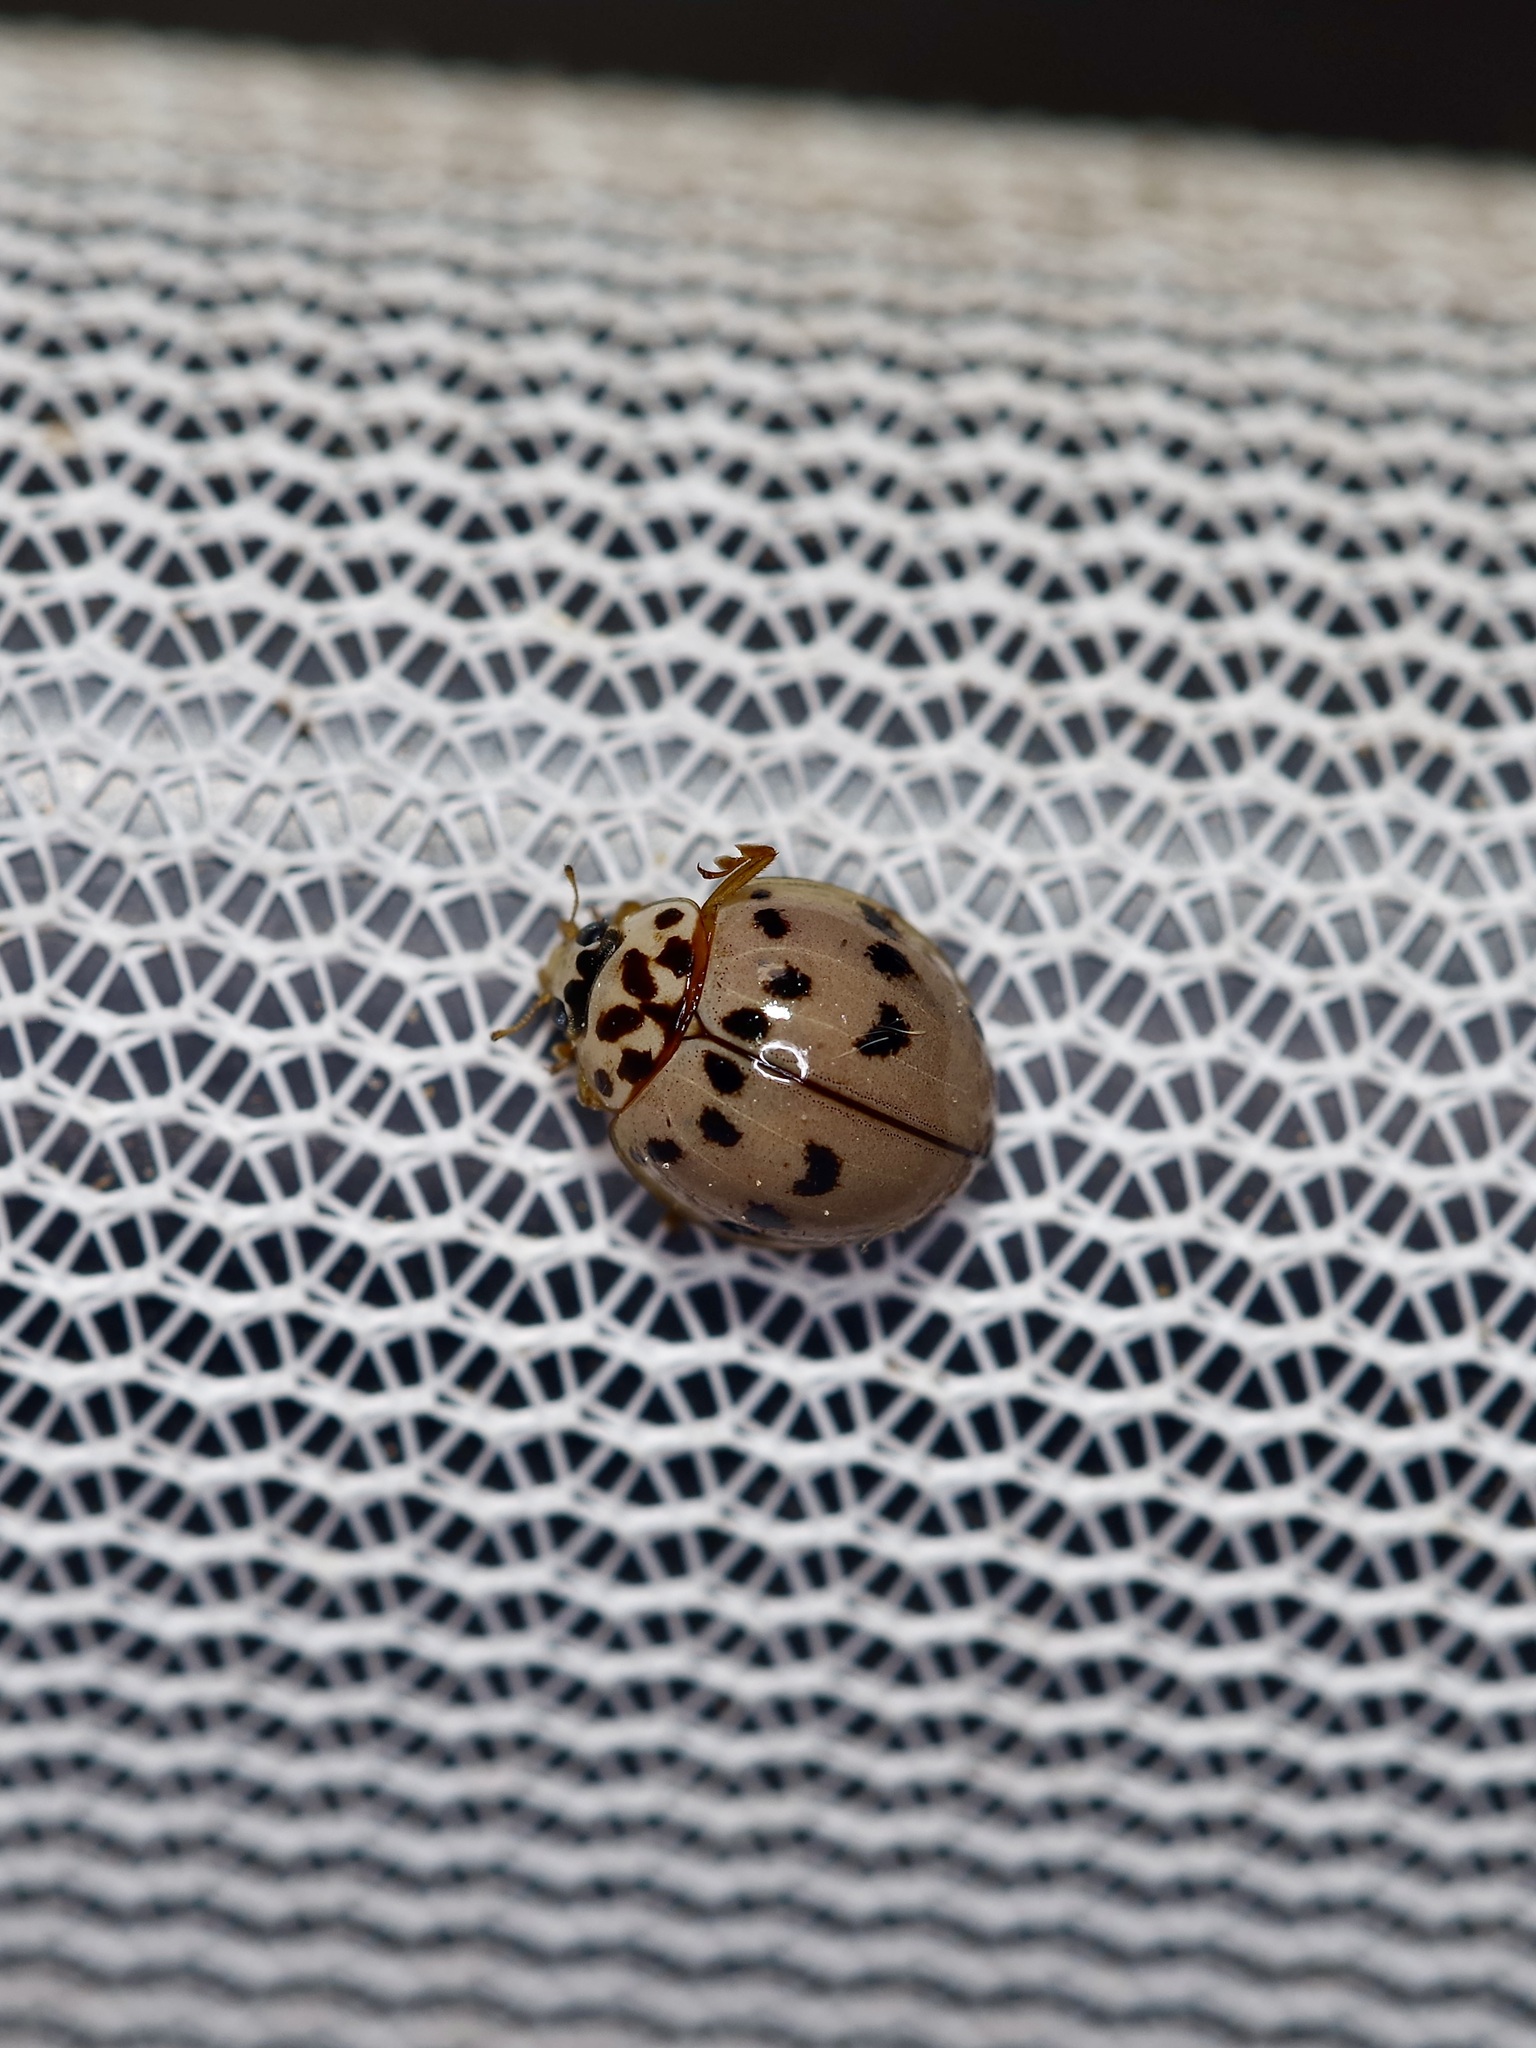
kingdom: Animalia
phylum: Arthropoda
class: Insecta
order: Coleoptera
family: Coccinellidae
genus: Olla
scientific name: Olla v-nigrum
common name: Ashy gray lady beetle
